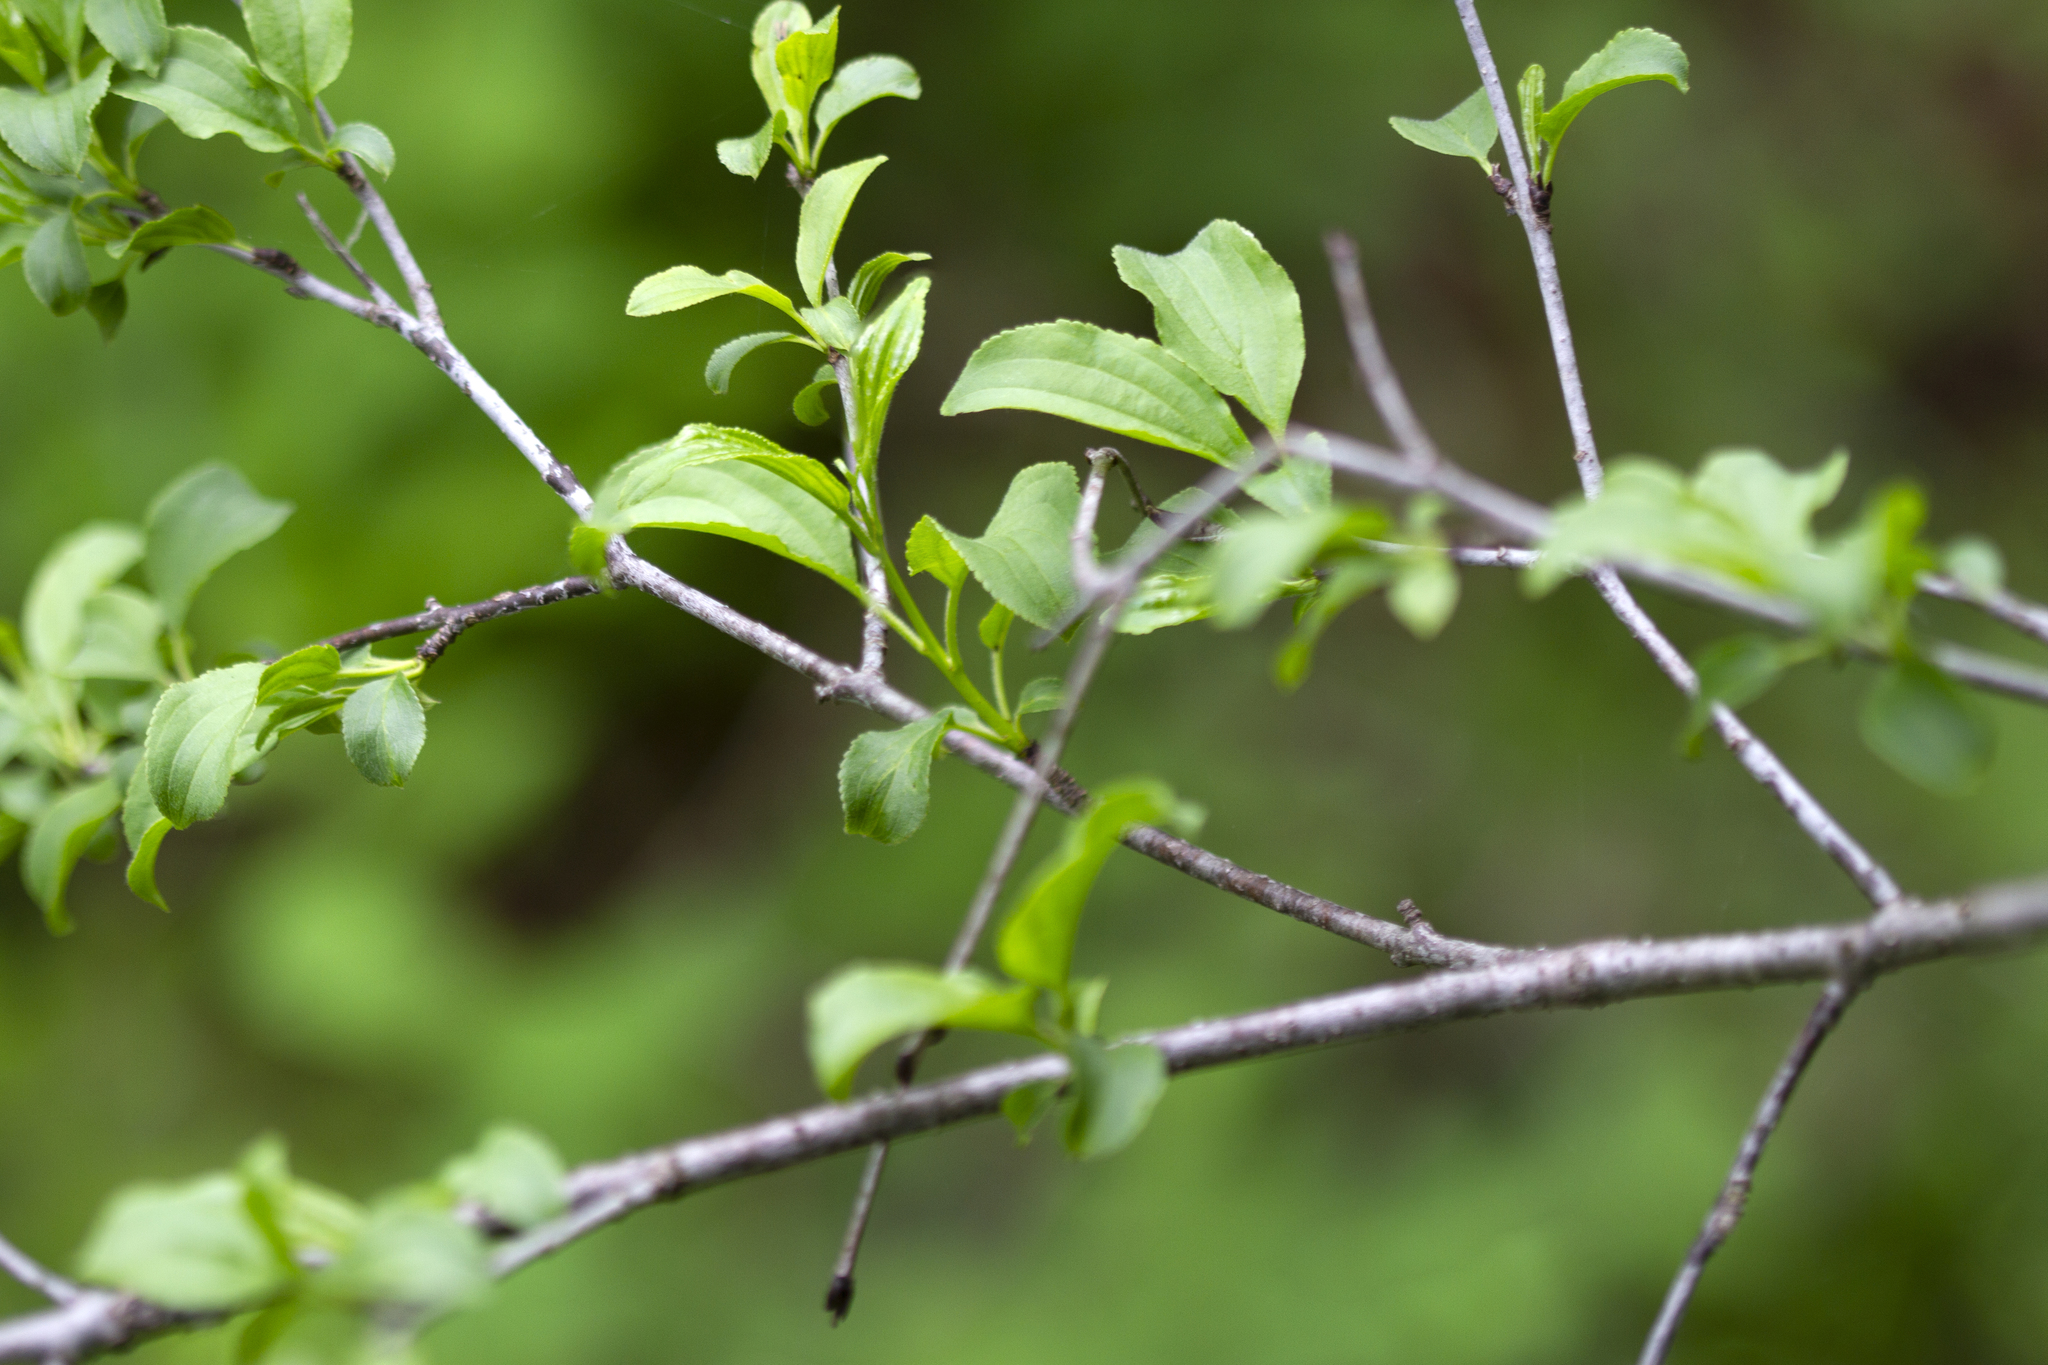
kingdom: Plantae
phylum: Tracheophyta
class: Magnoliopsida
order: Rosales
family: Rhamnaceae
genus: Rhamnus
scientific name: Rhamnus cathartica
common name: Common buckthorn
